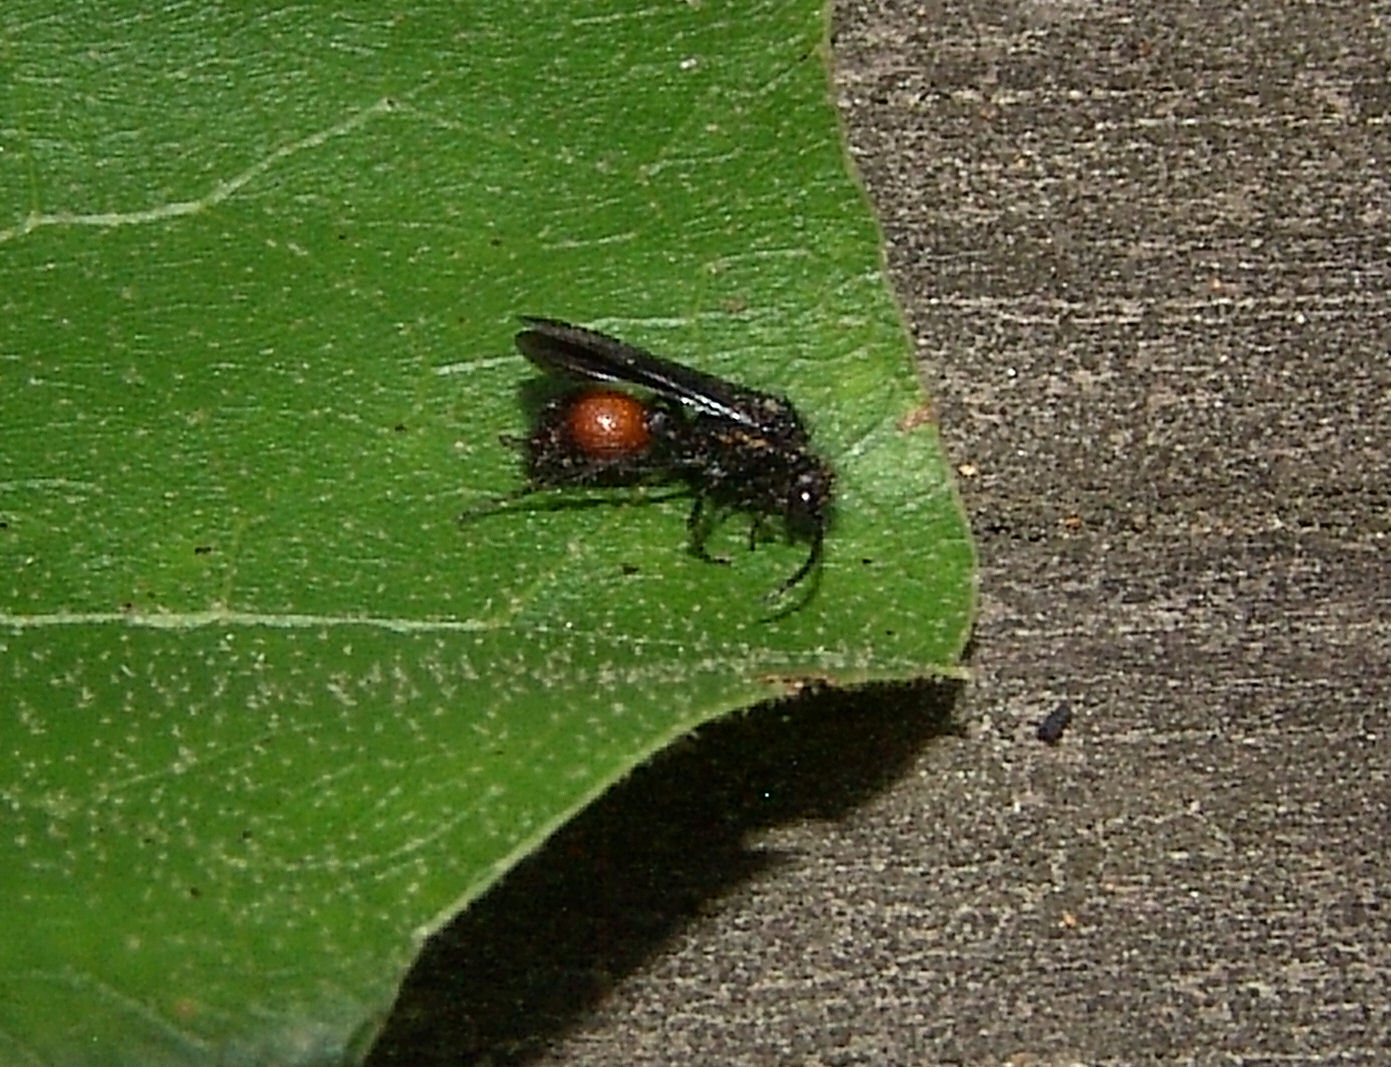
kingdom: Animalia
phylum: Arthropoda
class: Insecta
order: Hymenoptera
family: Mutillidae
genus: Dasymutilla
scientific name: Dasymutilla
